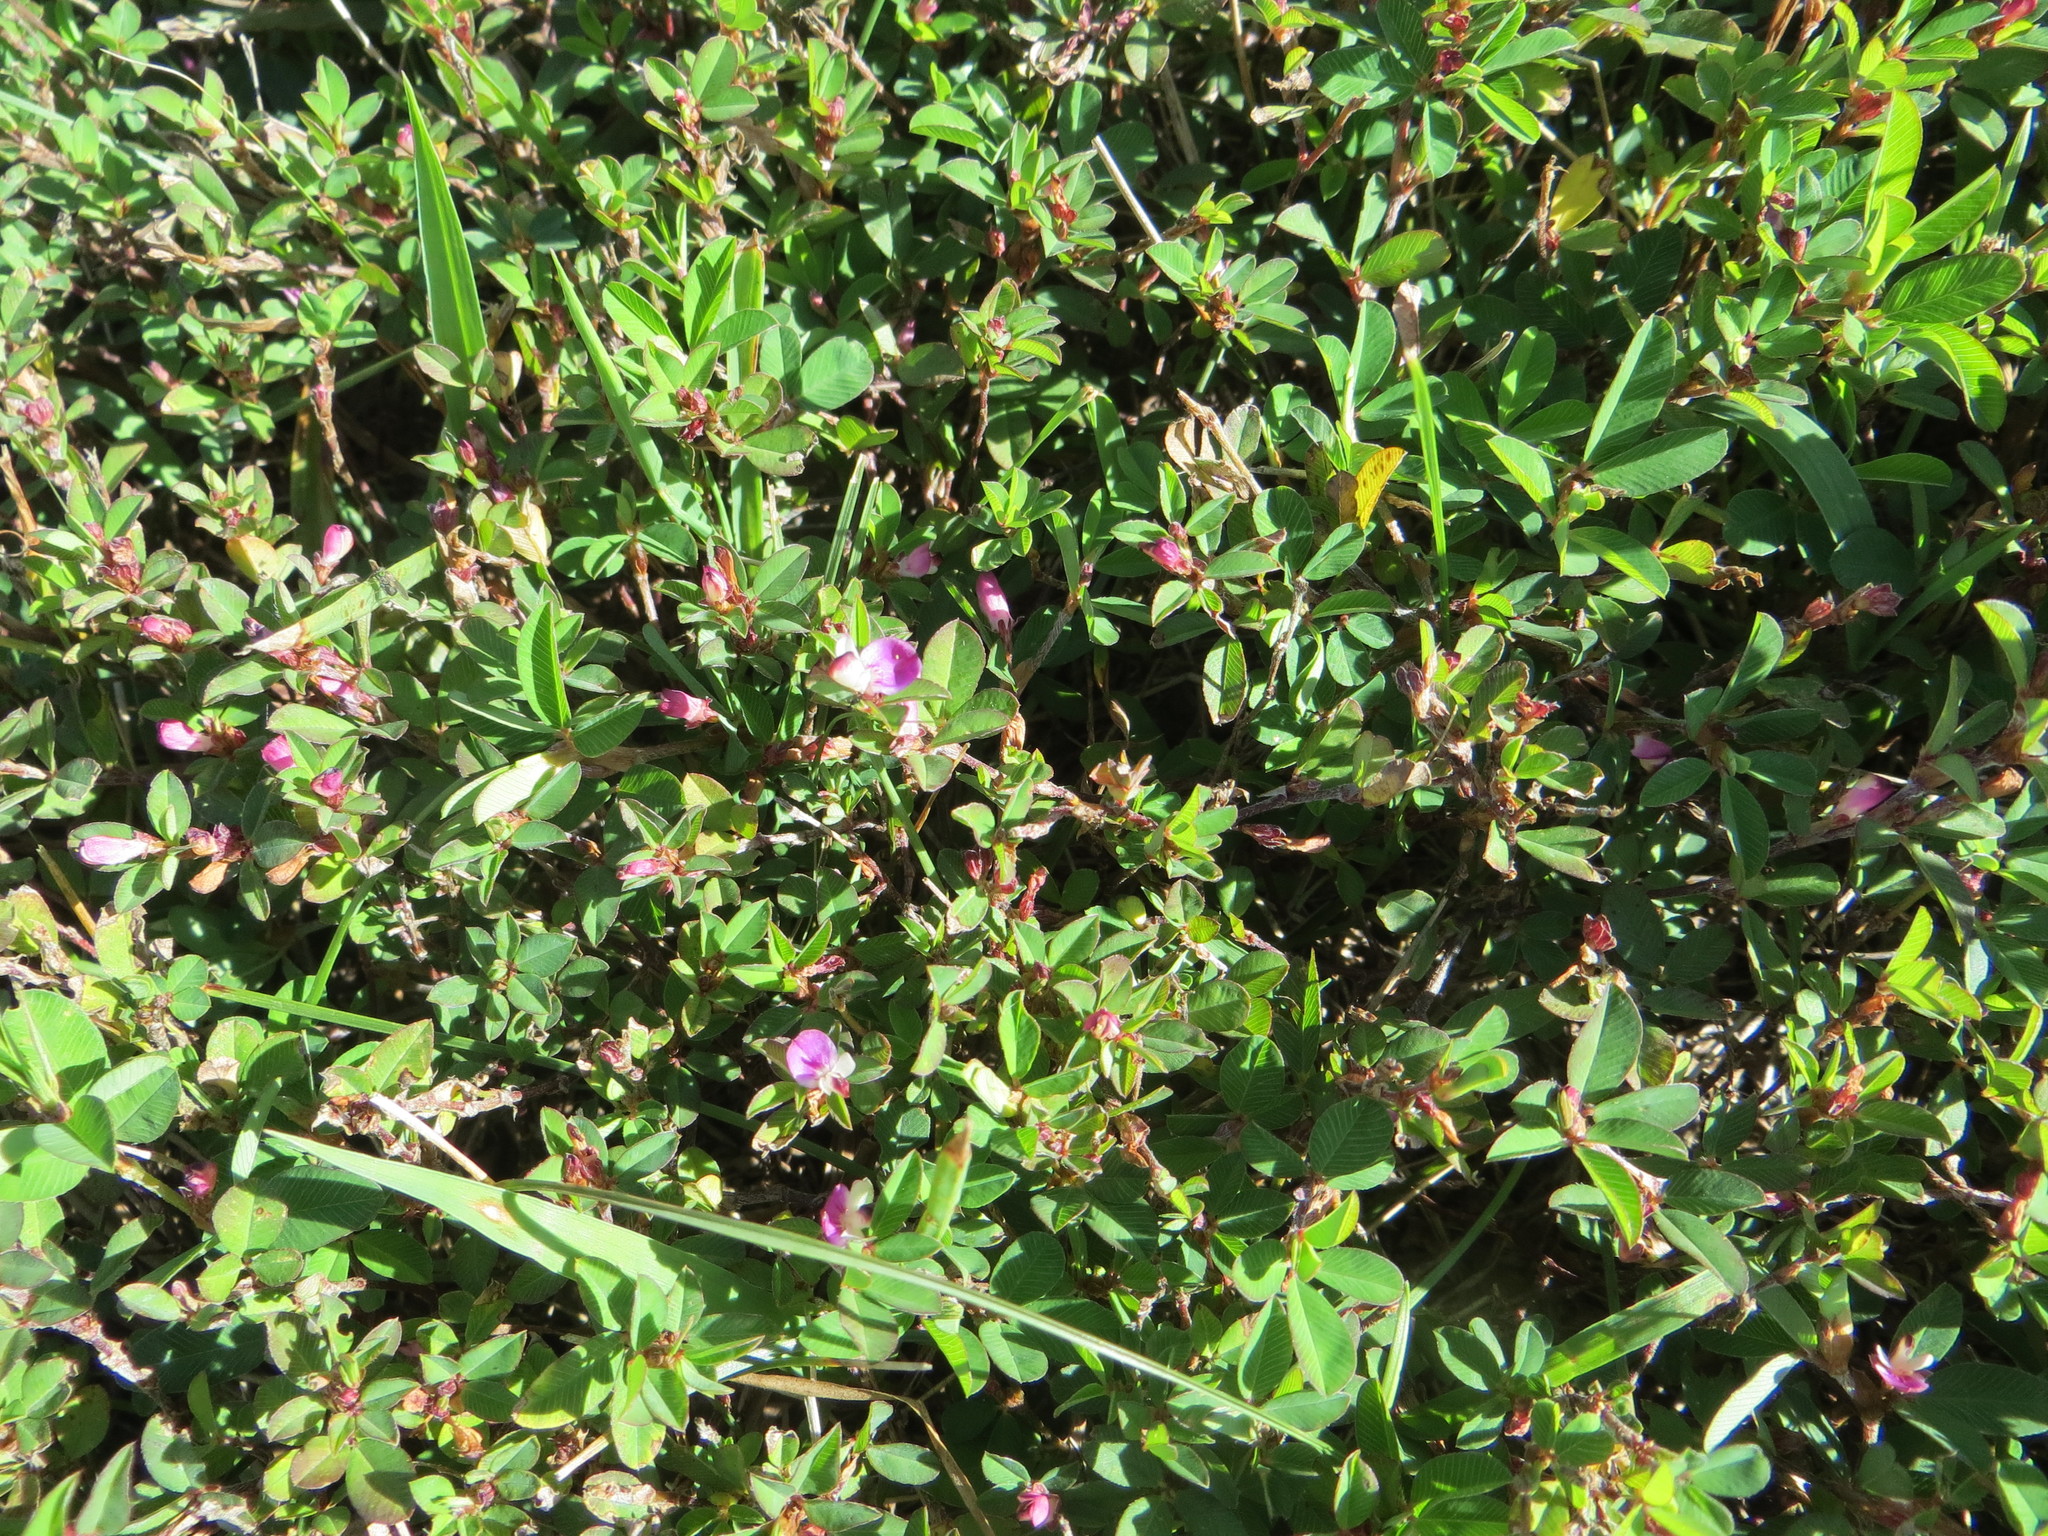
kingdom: Plantae
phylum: Tracheophyta
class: Magnoliopsida
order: Fabales
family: Fabaceae
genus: Kummerowia
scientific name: Kummerowia striata
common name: Japanese clover
